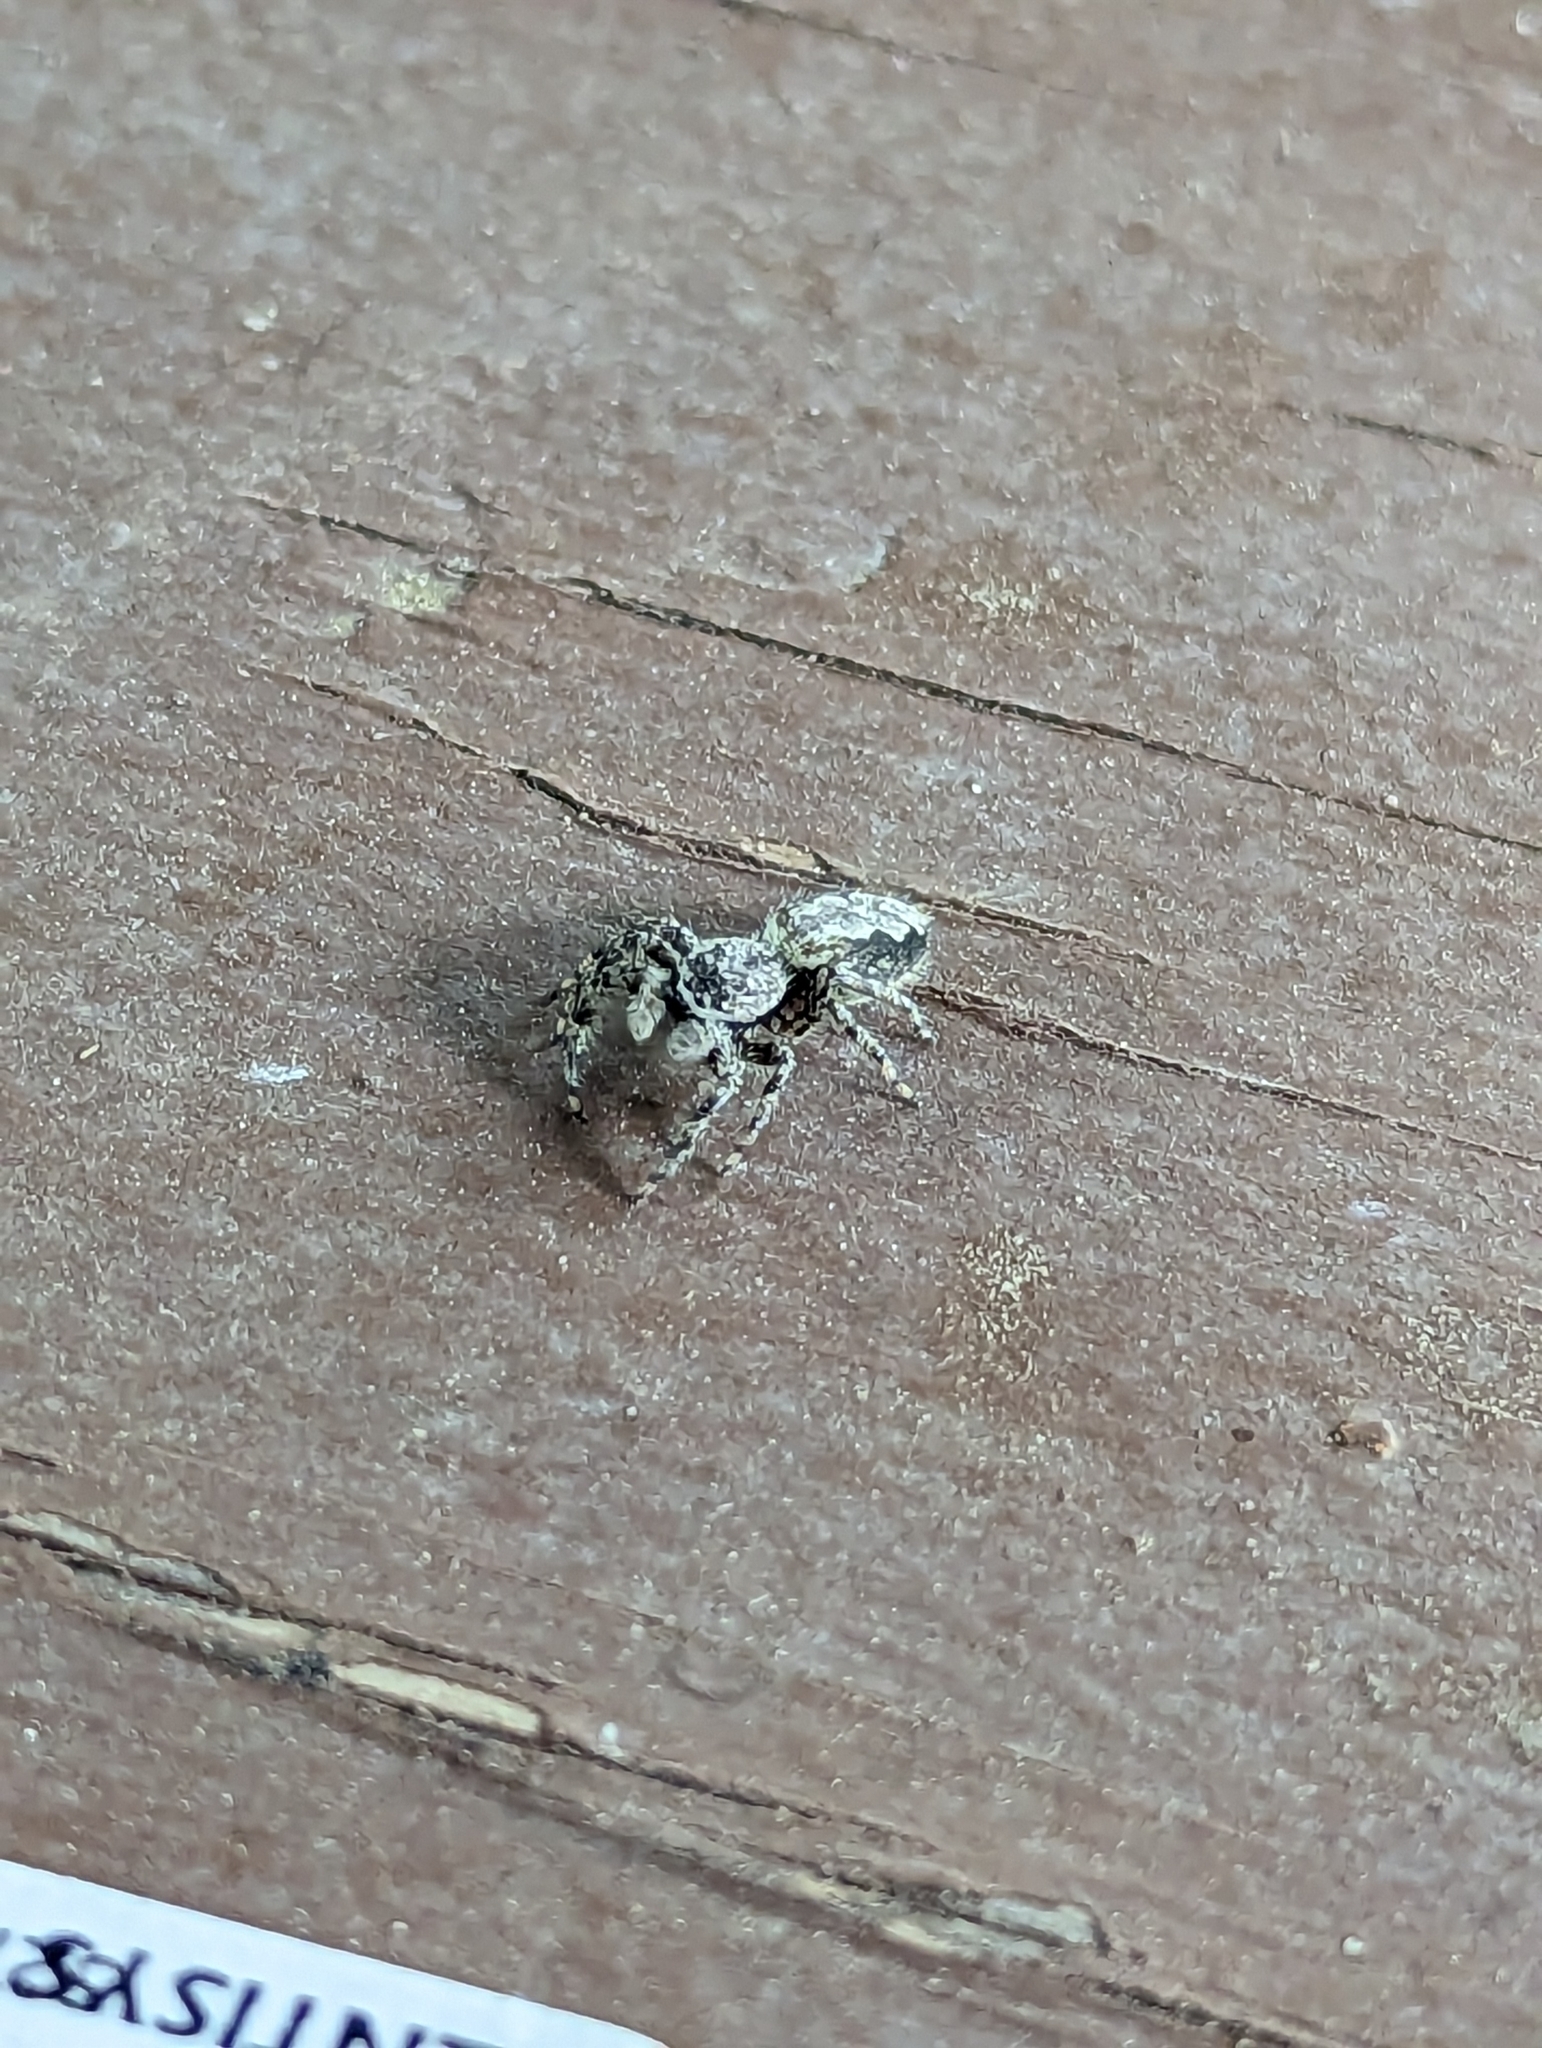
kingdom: Animalia
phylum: Arthropoda
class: Arachnida
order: Araneae
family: Salticidae
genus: Platycryptus
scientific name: Platycryptus undatus
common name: Tan jumping spider
